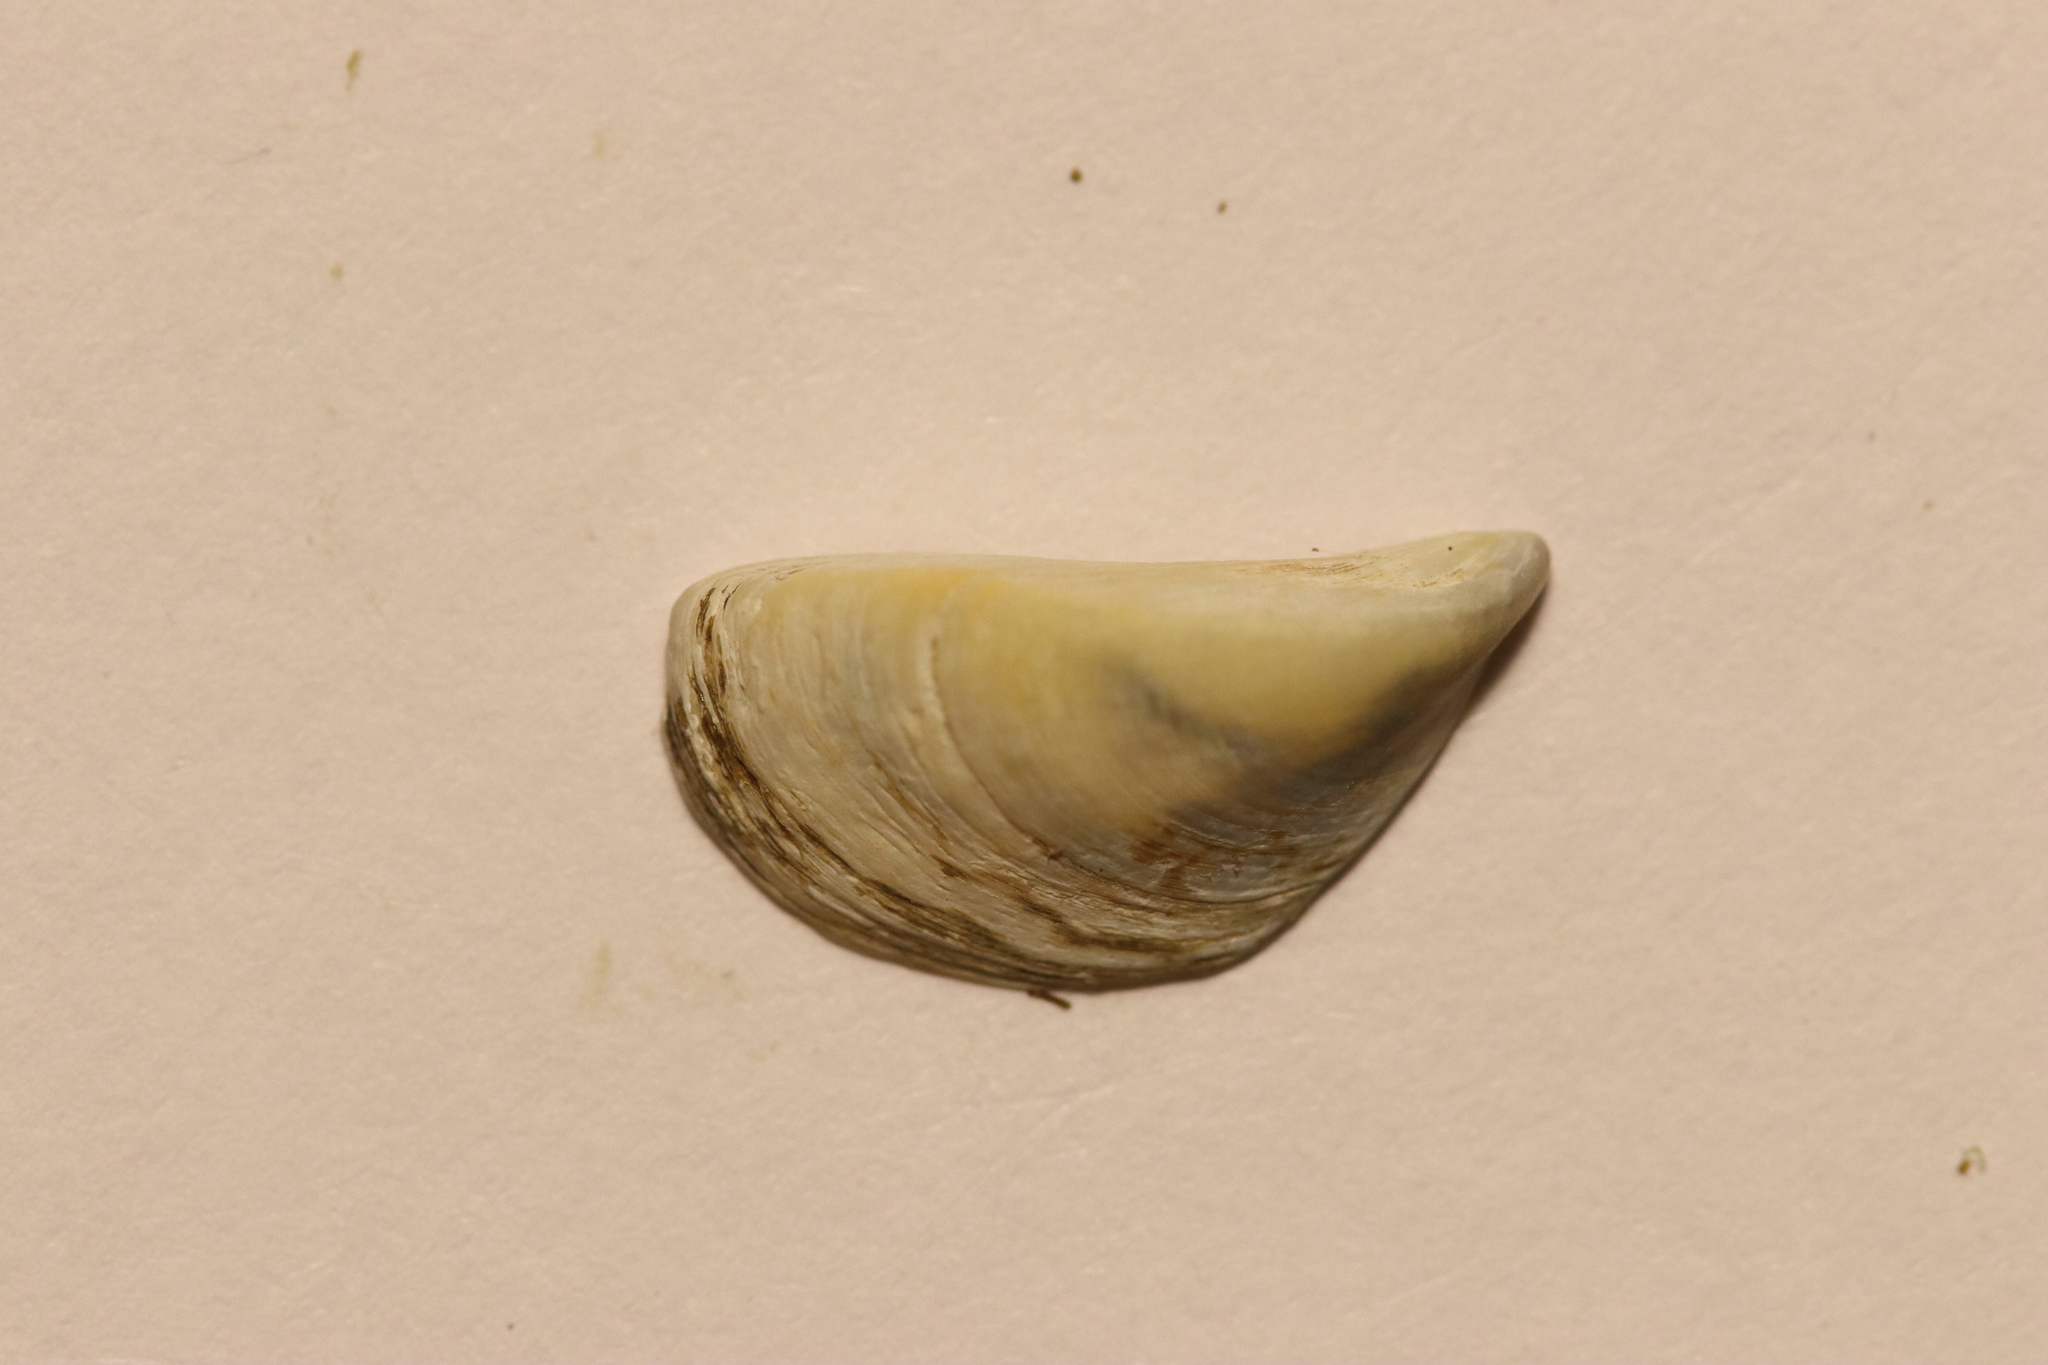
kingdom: Animalia
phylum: Mollusca
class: Bivalvia
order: Myida
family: Dreissenidae
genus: Dreissena
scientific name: Dreissena polymorpha
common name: Zebra mussel
